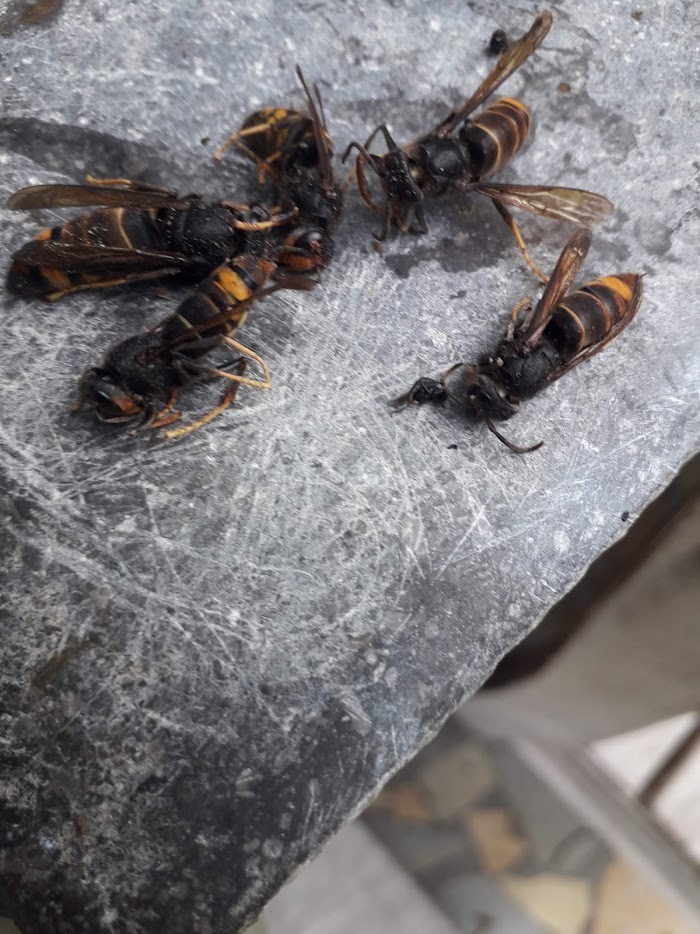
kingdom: Animalia
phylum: Arthropoda
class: Insecta
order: Hymenoptera
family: Vespidae
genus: Vespa
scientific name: Vespa velutina
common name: Asian hornet
